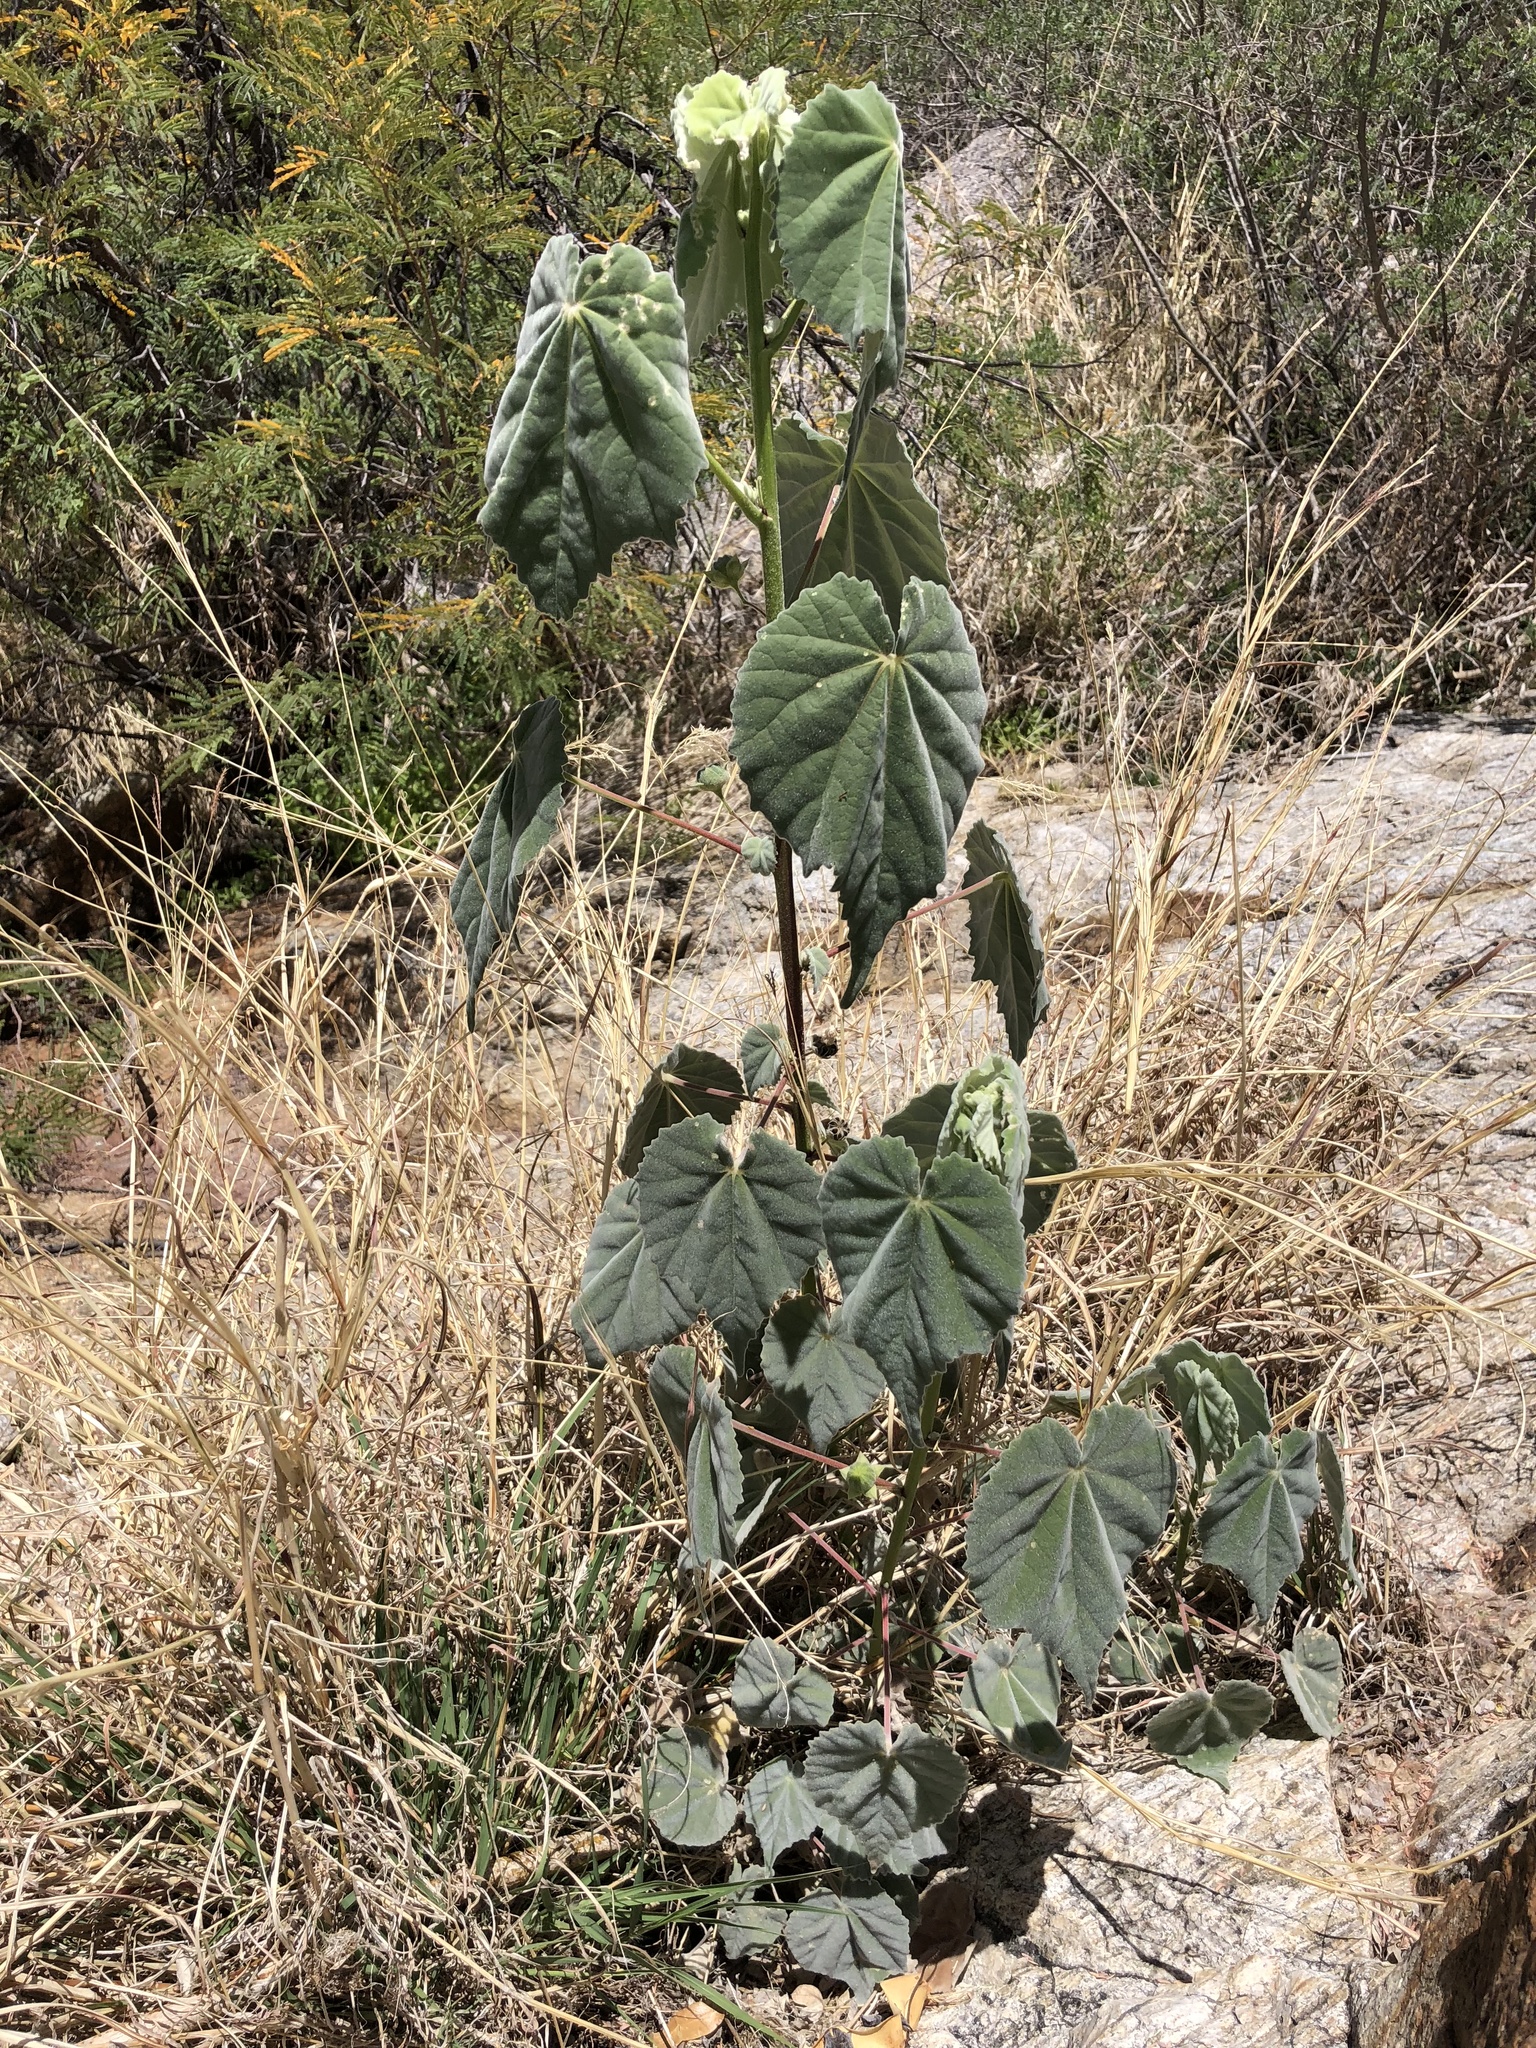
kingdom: Plantae
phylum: Tracheophyta
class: Magnoliopsida
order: Malvales
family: Malvaceae
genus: Abutilon
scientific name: Abutilon reventum
